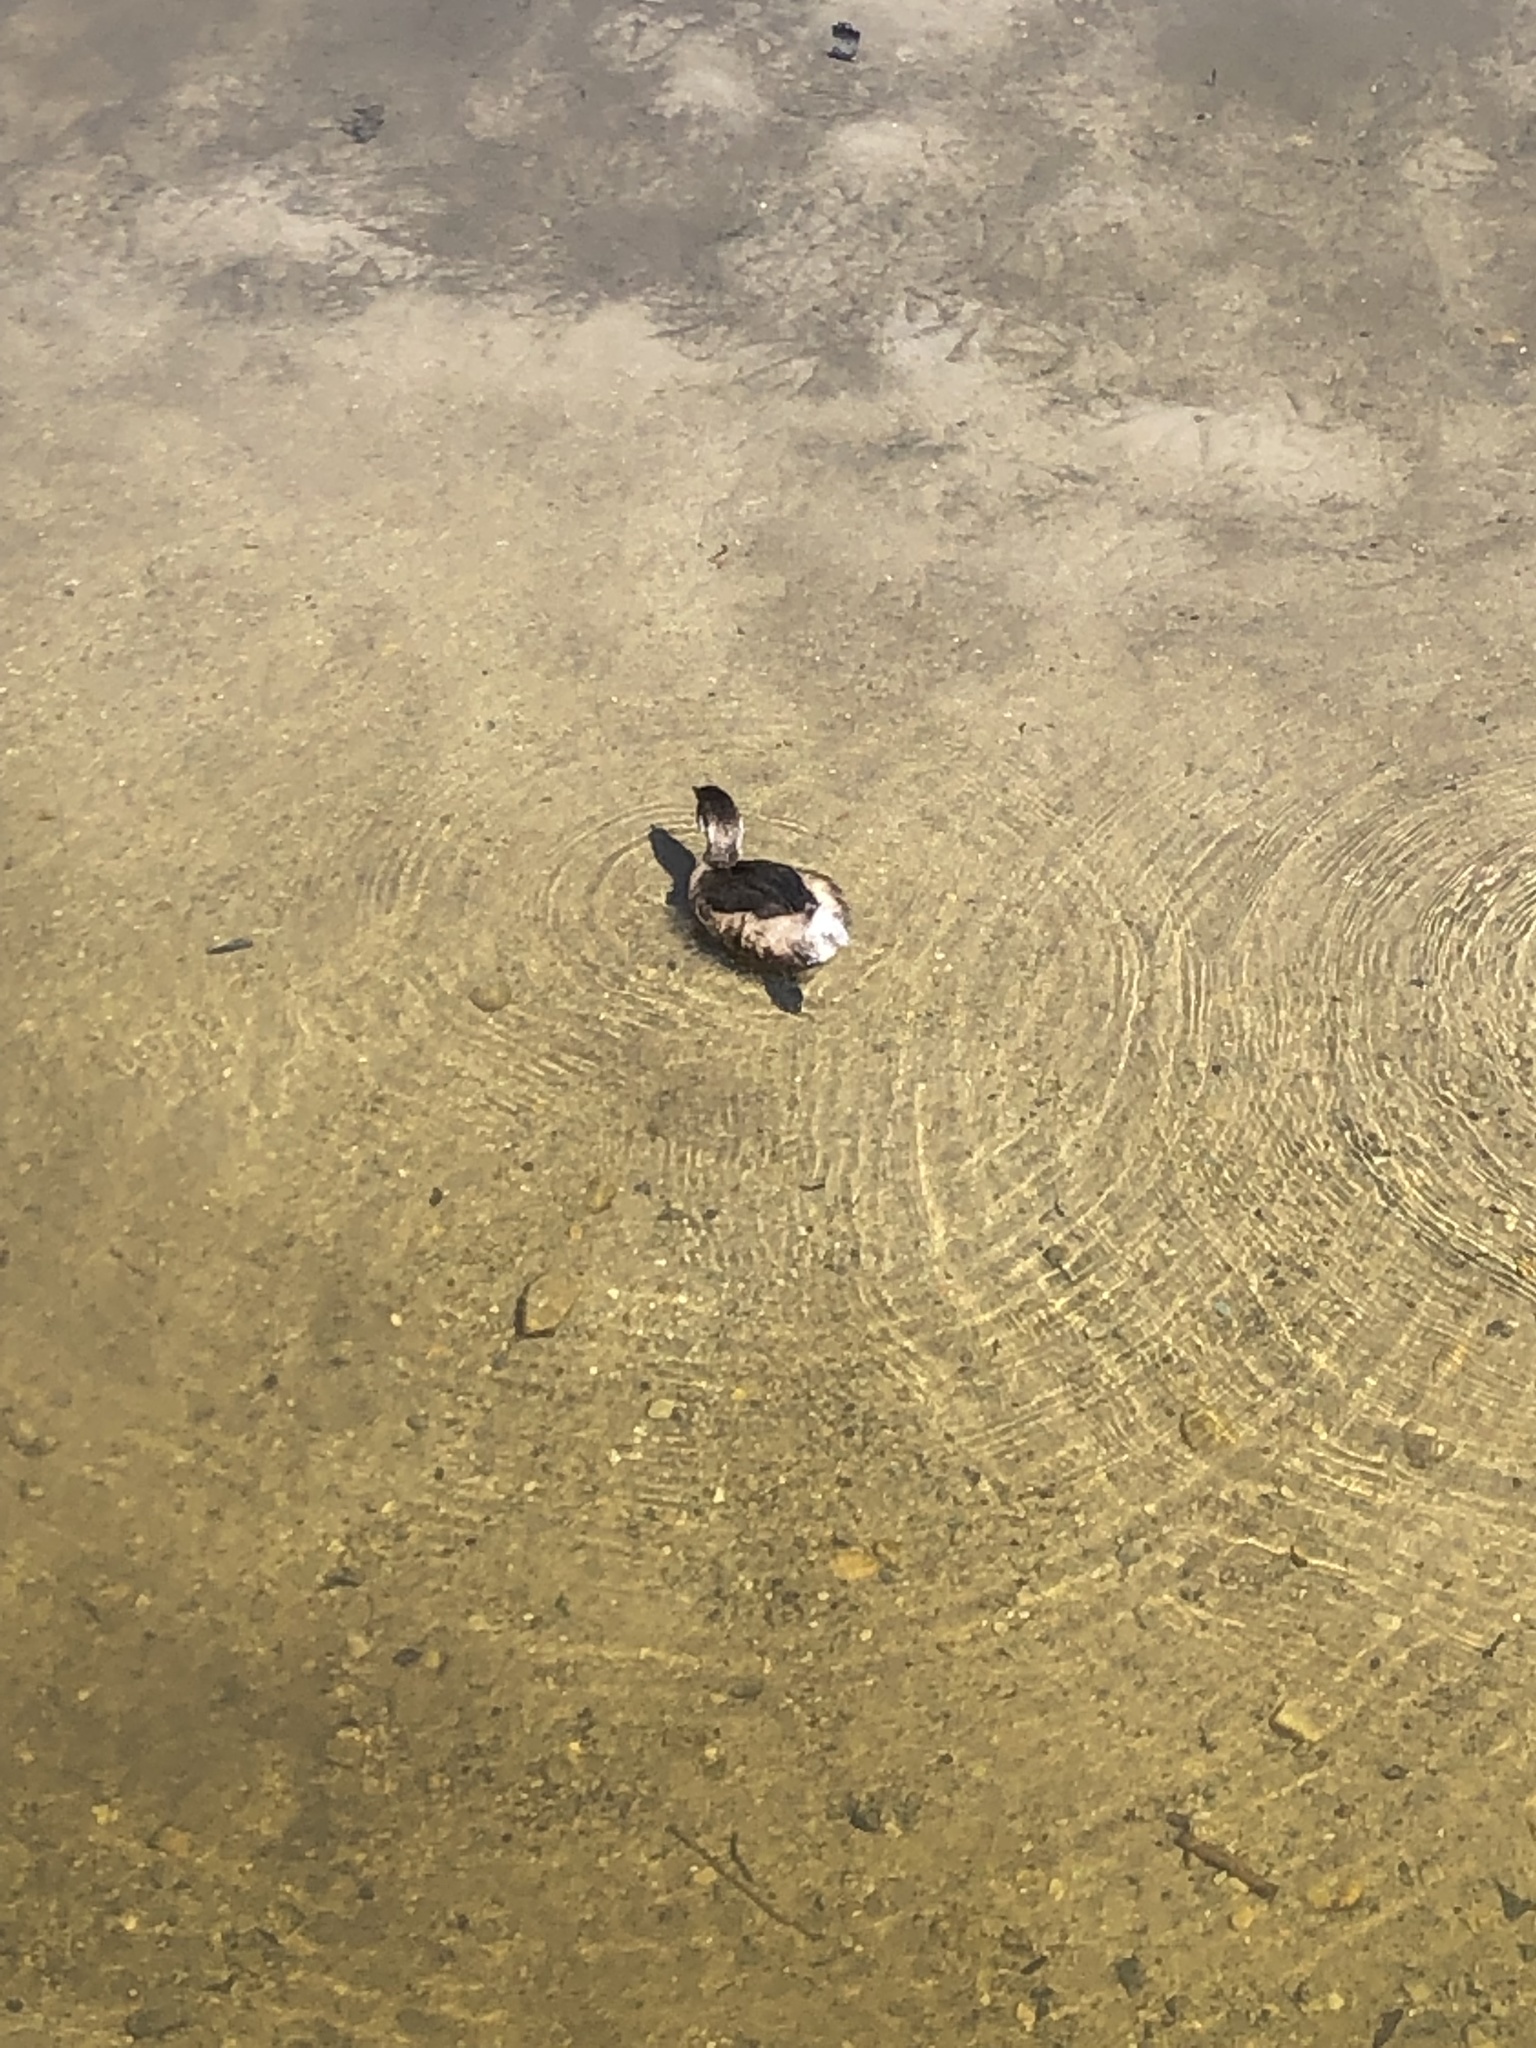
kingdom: Animalia
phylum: Chordata
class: Aves
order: Podicipediformes
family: Podicipedidae
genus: Podilymbus
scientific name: Podilymbus podiceps
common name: Pied-billed grebe
